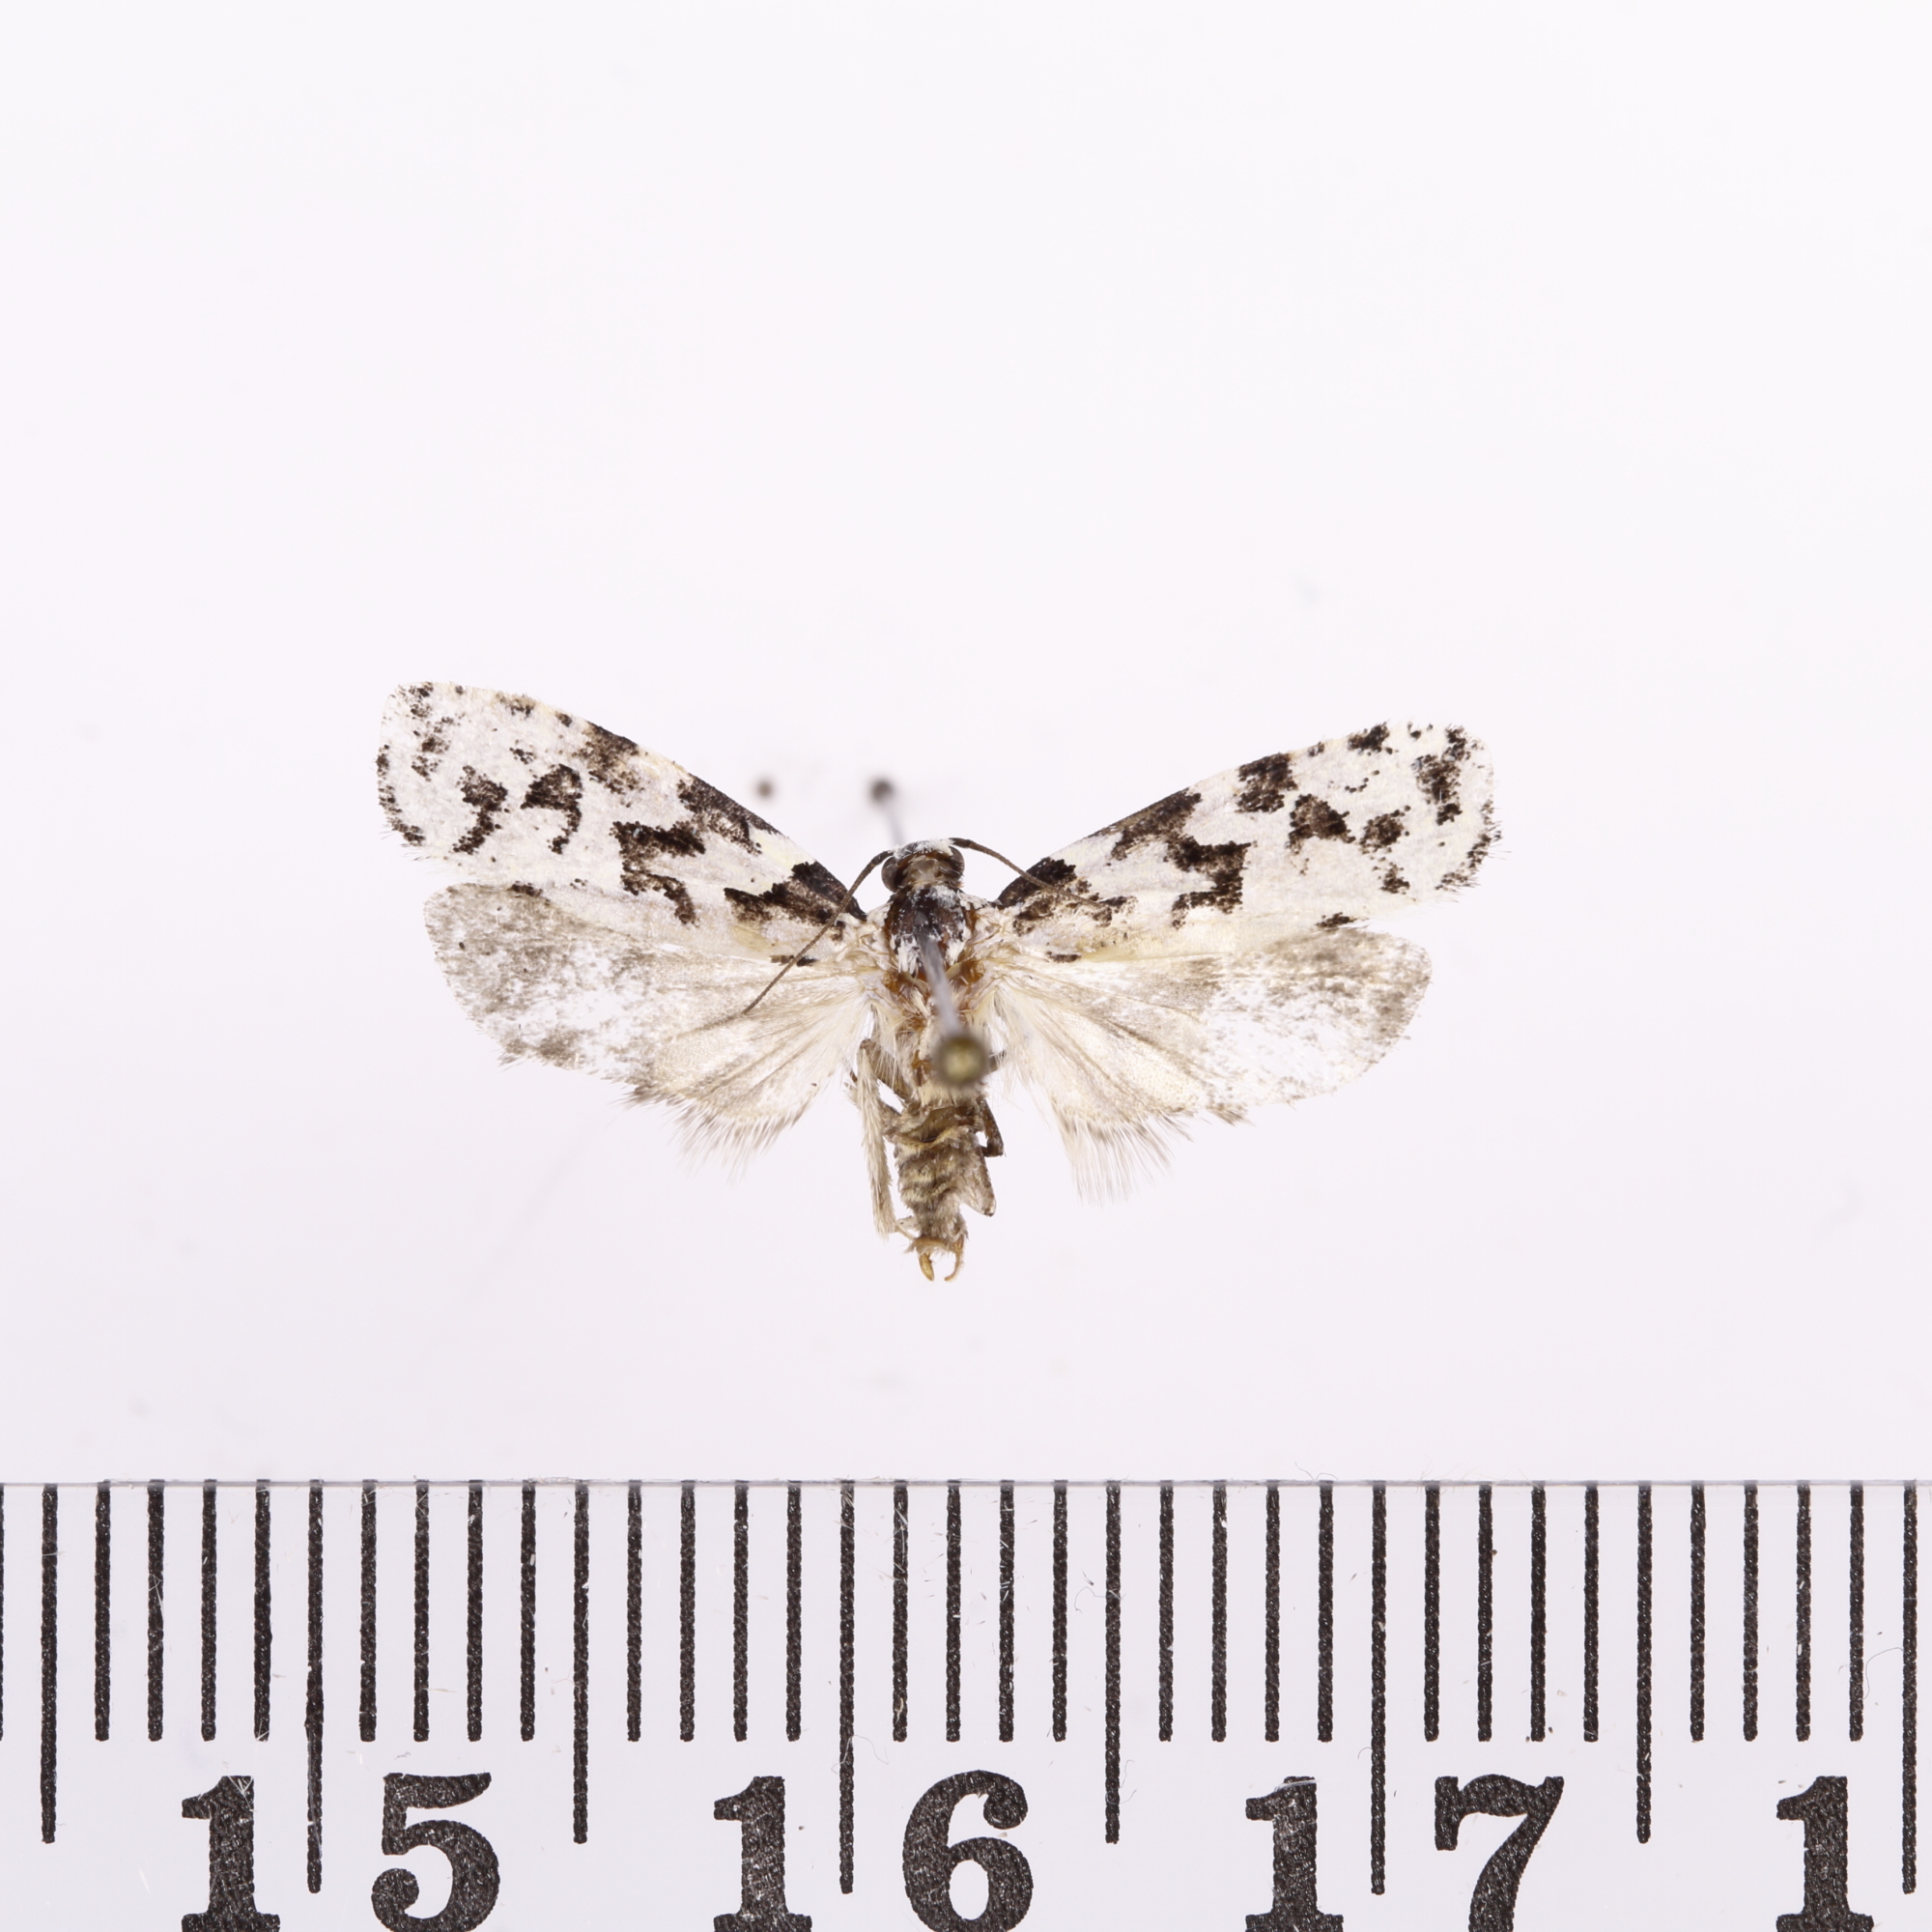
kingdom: Animalia
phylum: Arthropoda
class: Insecta
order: Lepidoptera
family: Oecophoridae
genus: Izatha
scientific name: Izatha
